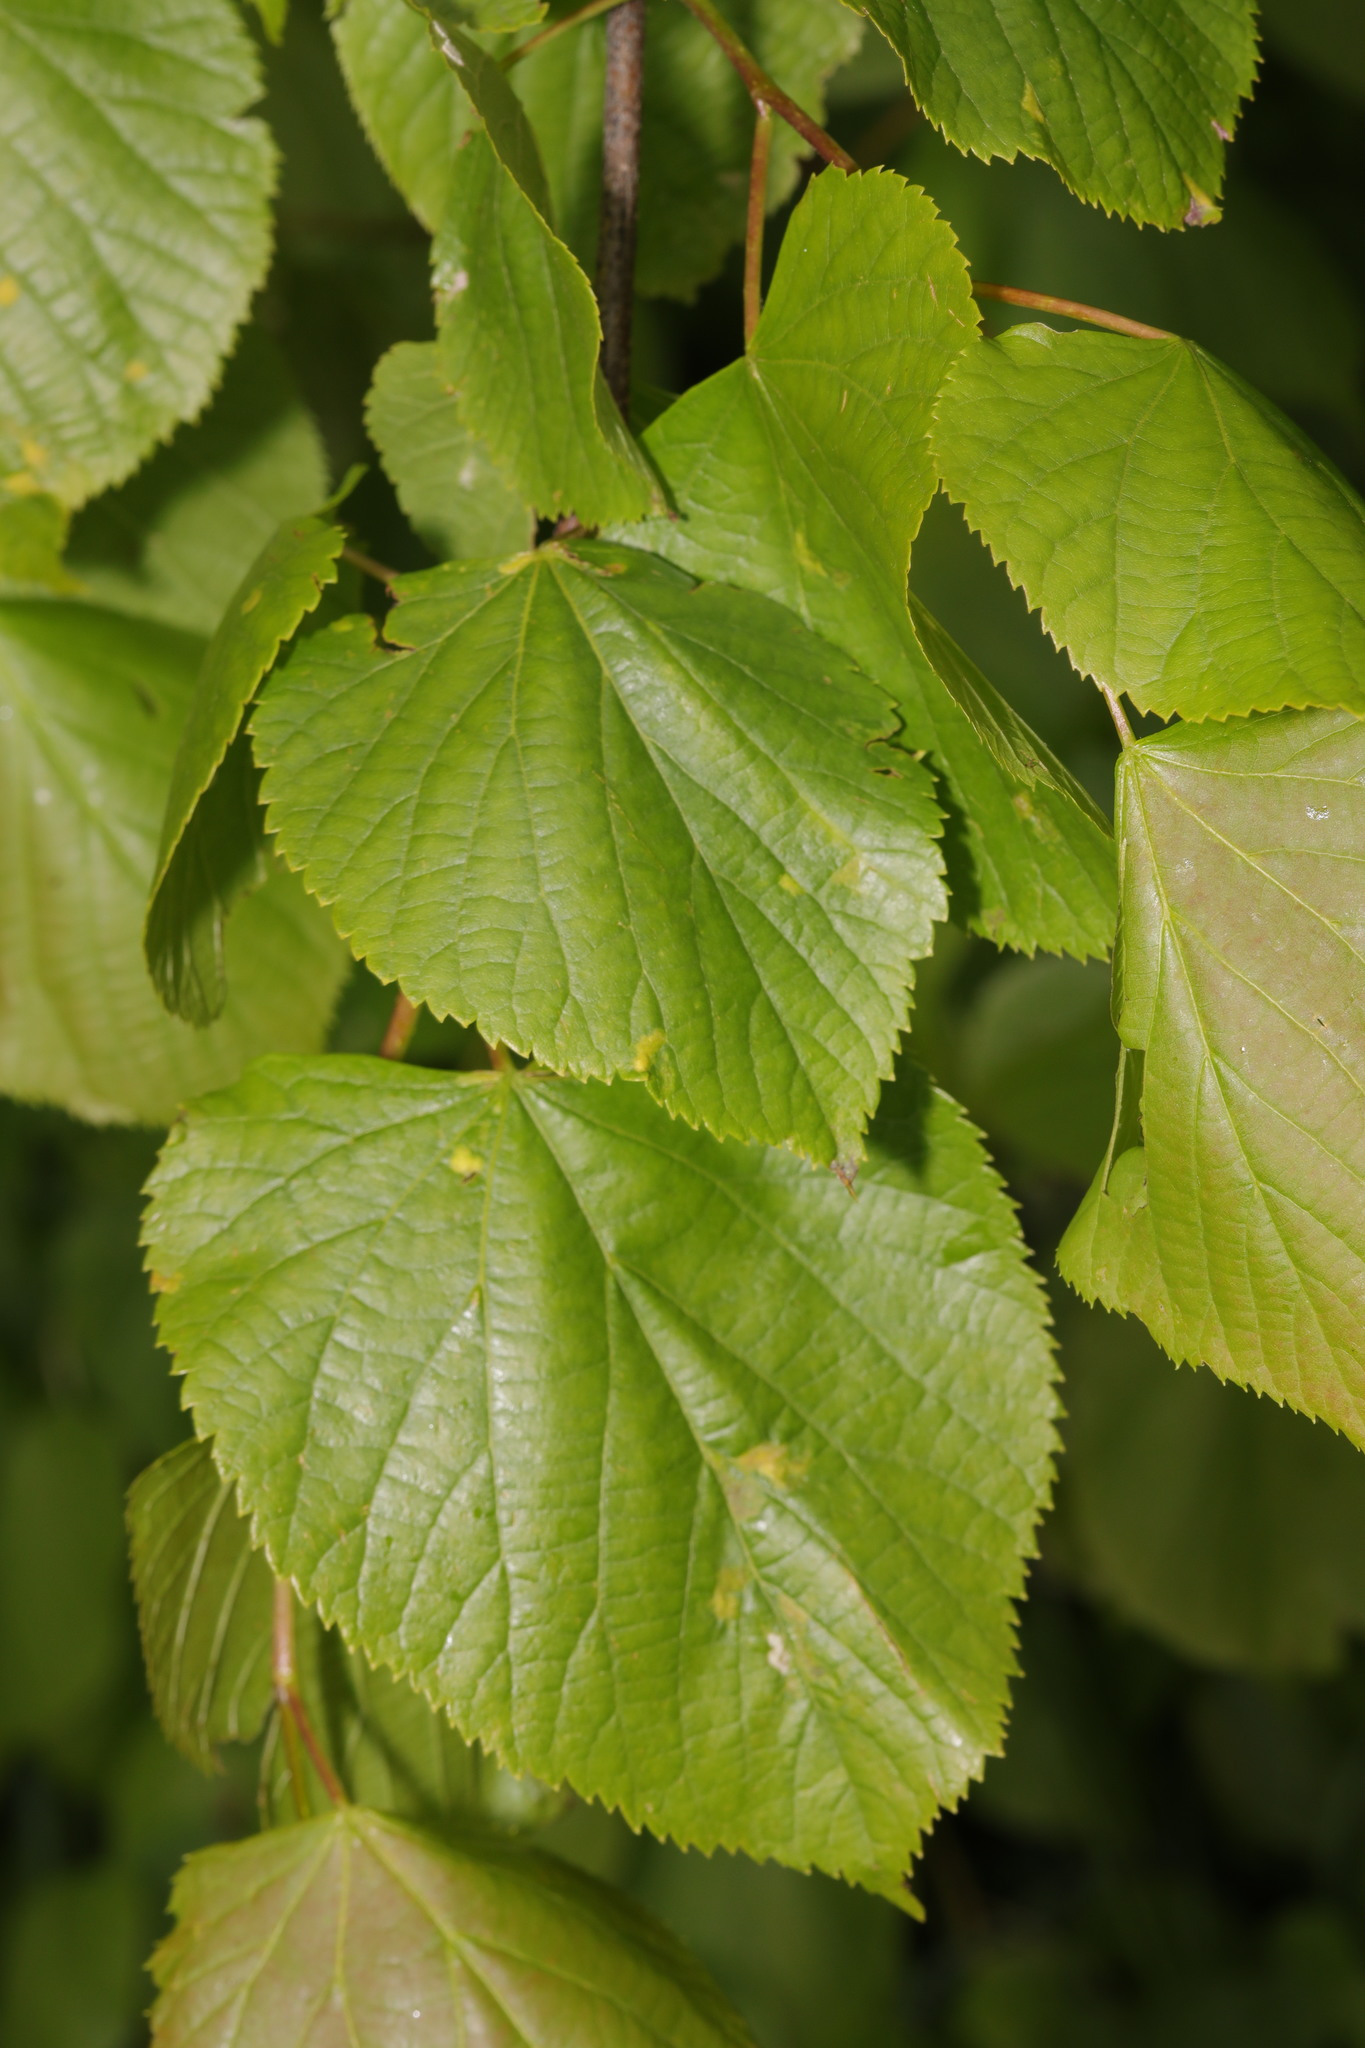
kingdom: Plantae
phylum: Tracheophyta
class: Magnoliopsida
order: Malvales
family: Malvaceae
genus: Tilia
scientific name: Tilia europaea
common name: European linden
